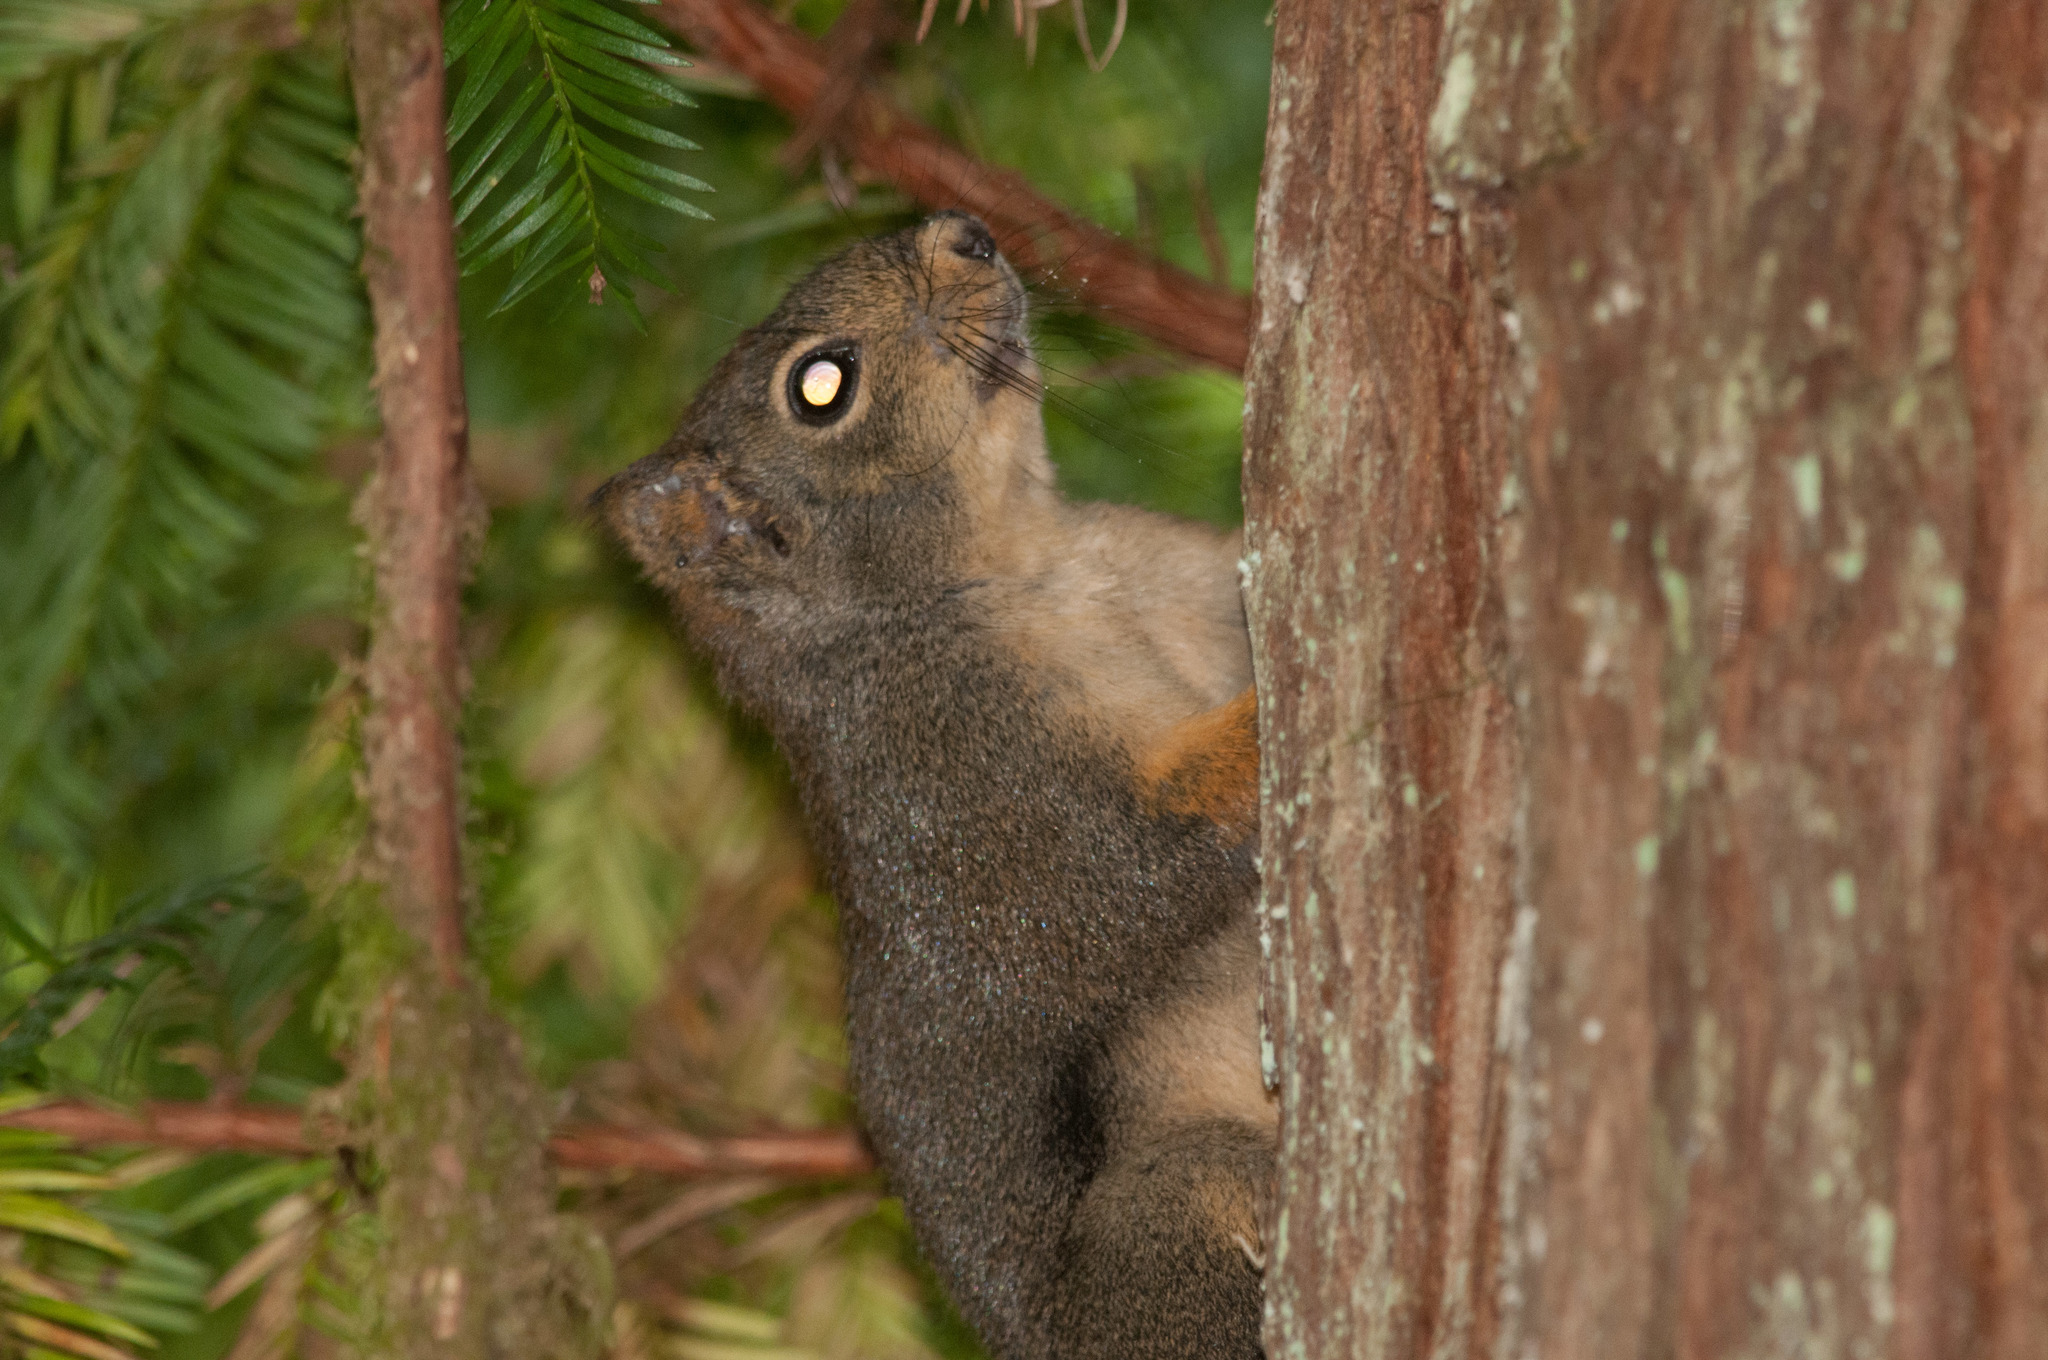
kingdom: Animalia
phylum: Chordata
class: Mammalia
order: Rodentia
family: Sciuridae
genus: Tamiasciurus
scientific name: Tamiasciurus douglasii
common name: Douglas's squirrel
